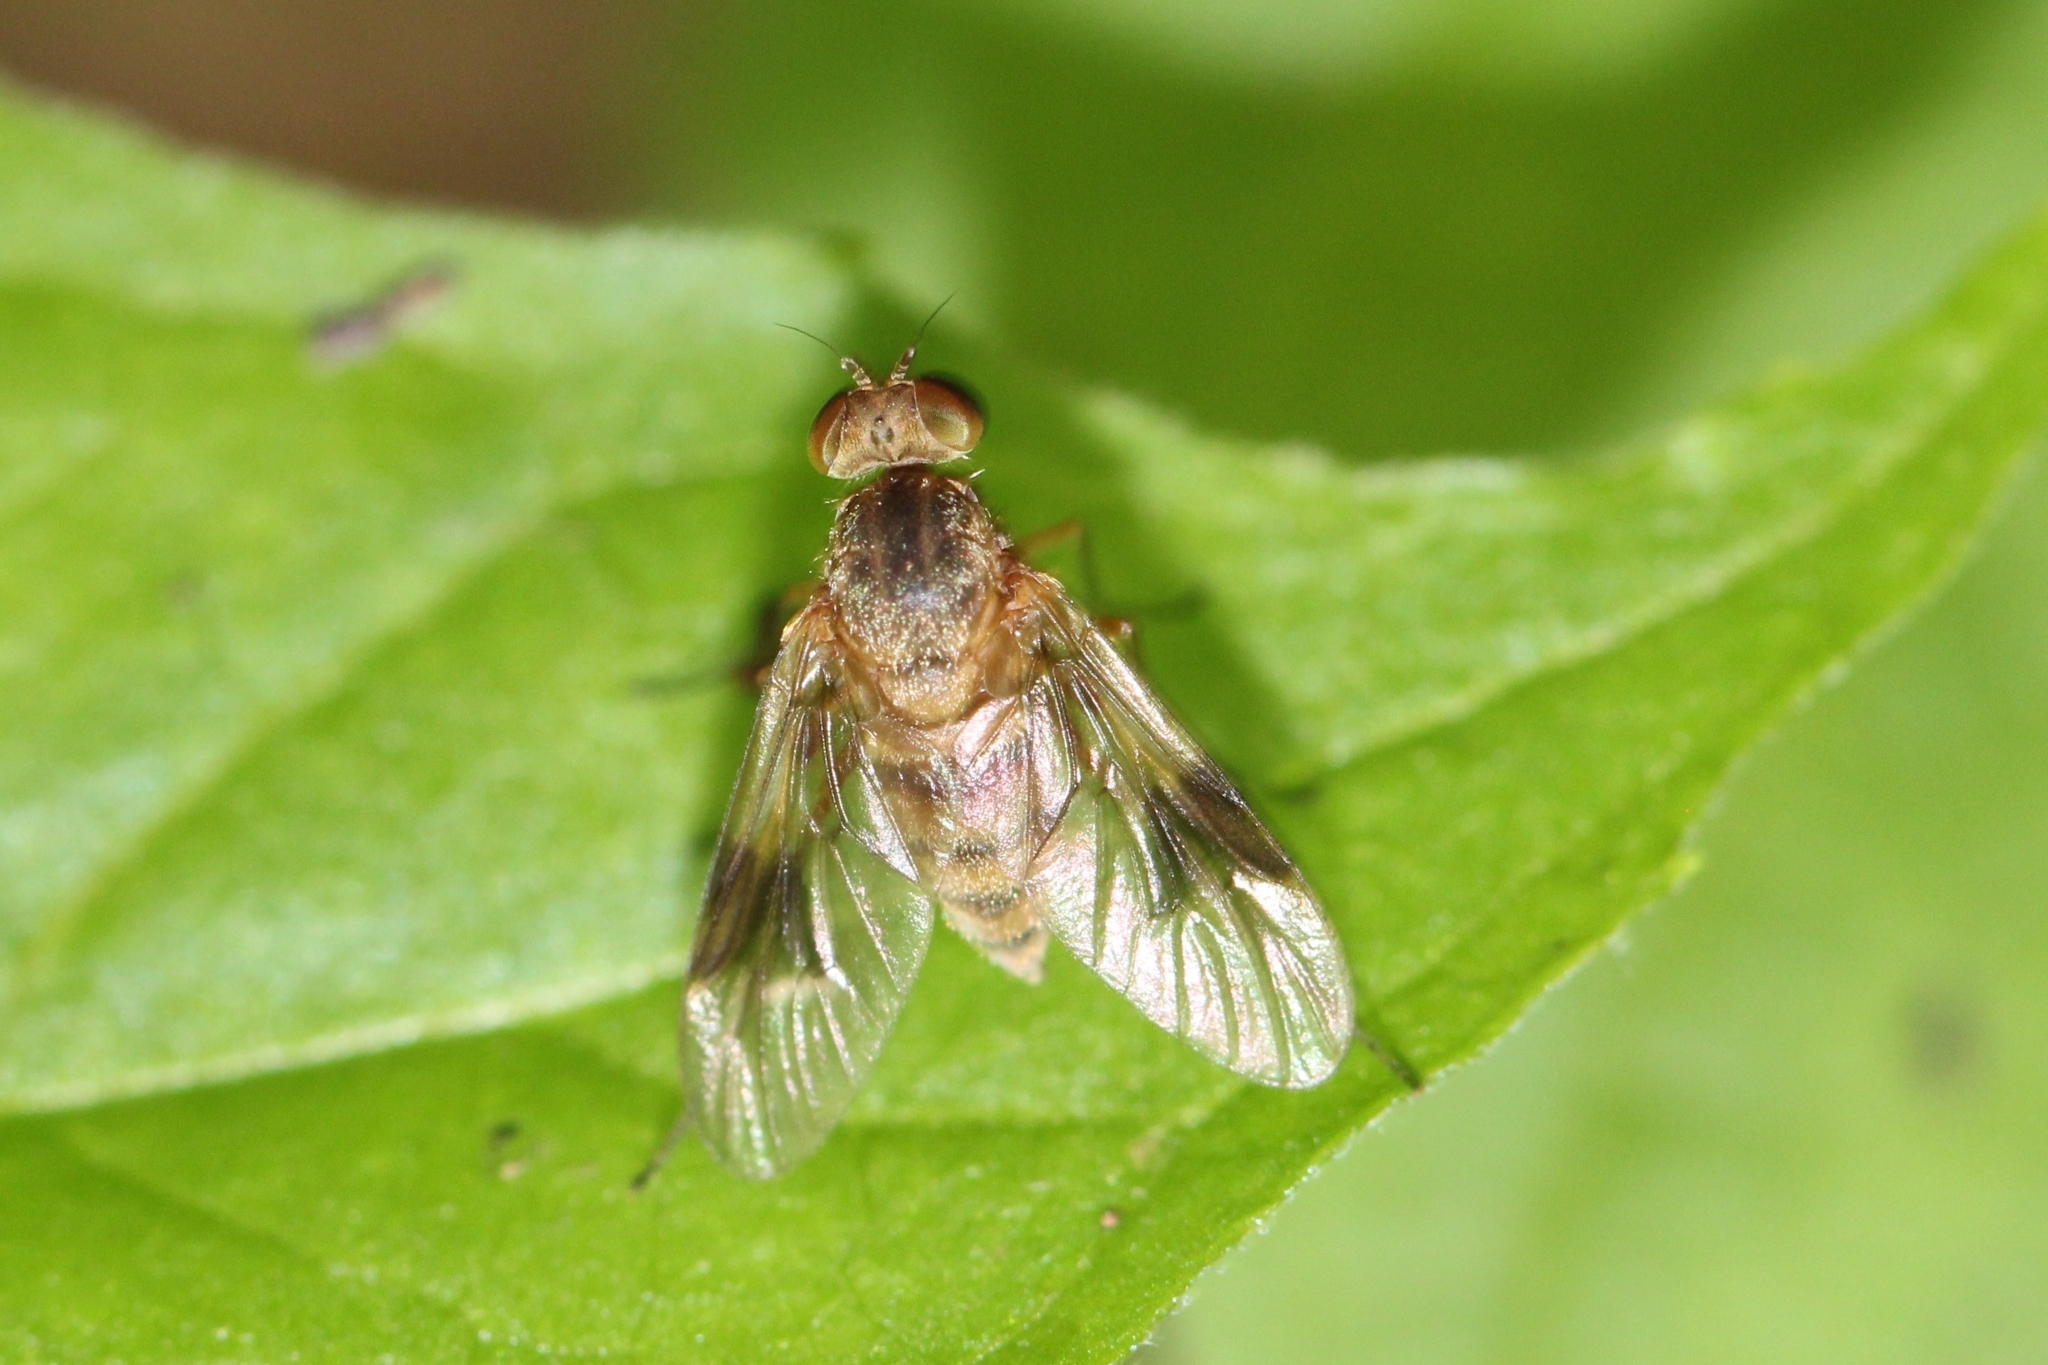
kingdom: Animalia
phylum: Arthropoda
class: Insecta
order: Diptera
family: Rhagionidae
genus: Chrysopilus
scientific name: Chrysopilus quadratus
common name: Quadrate snipe fly
